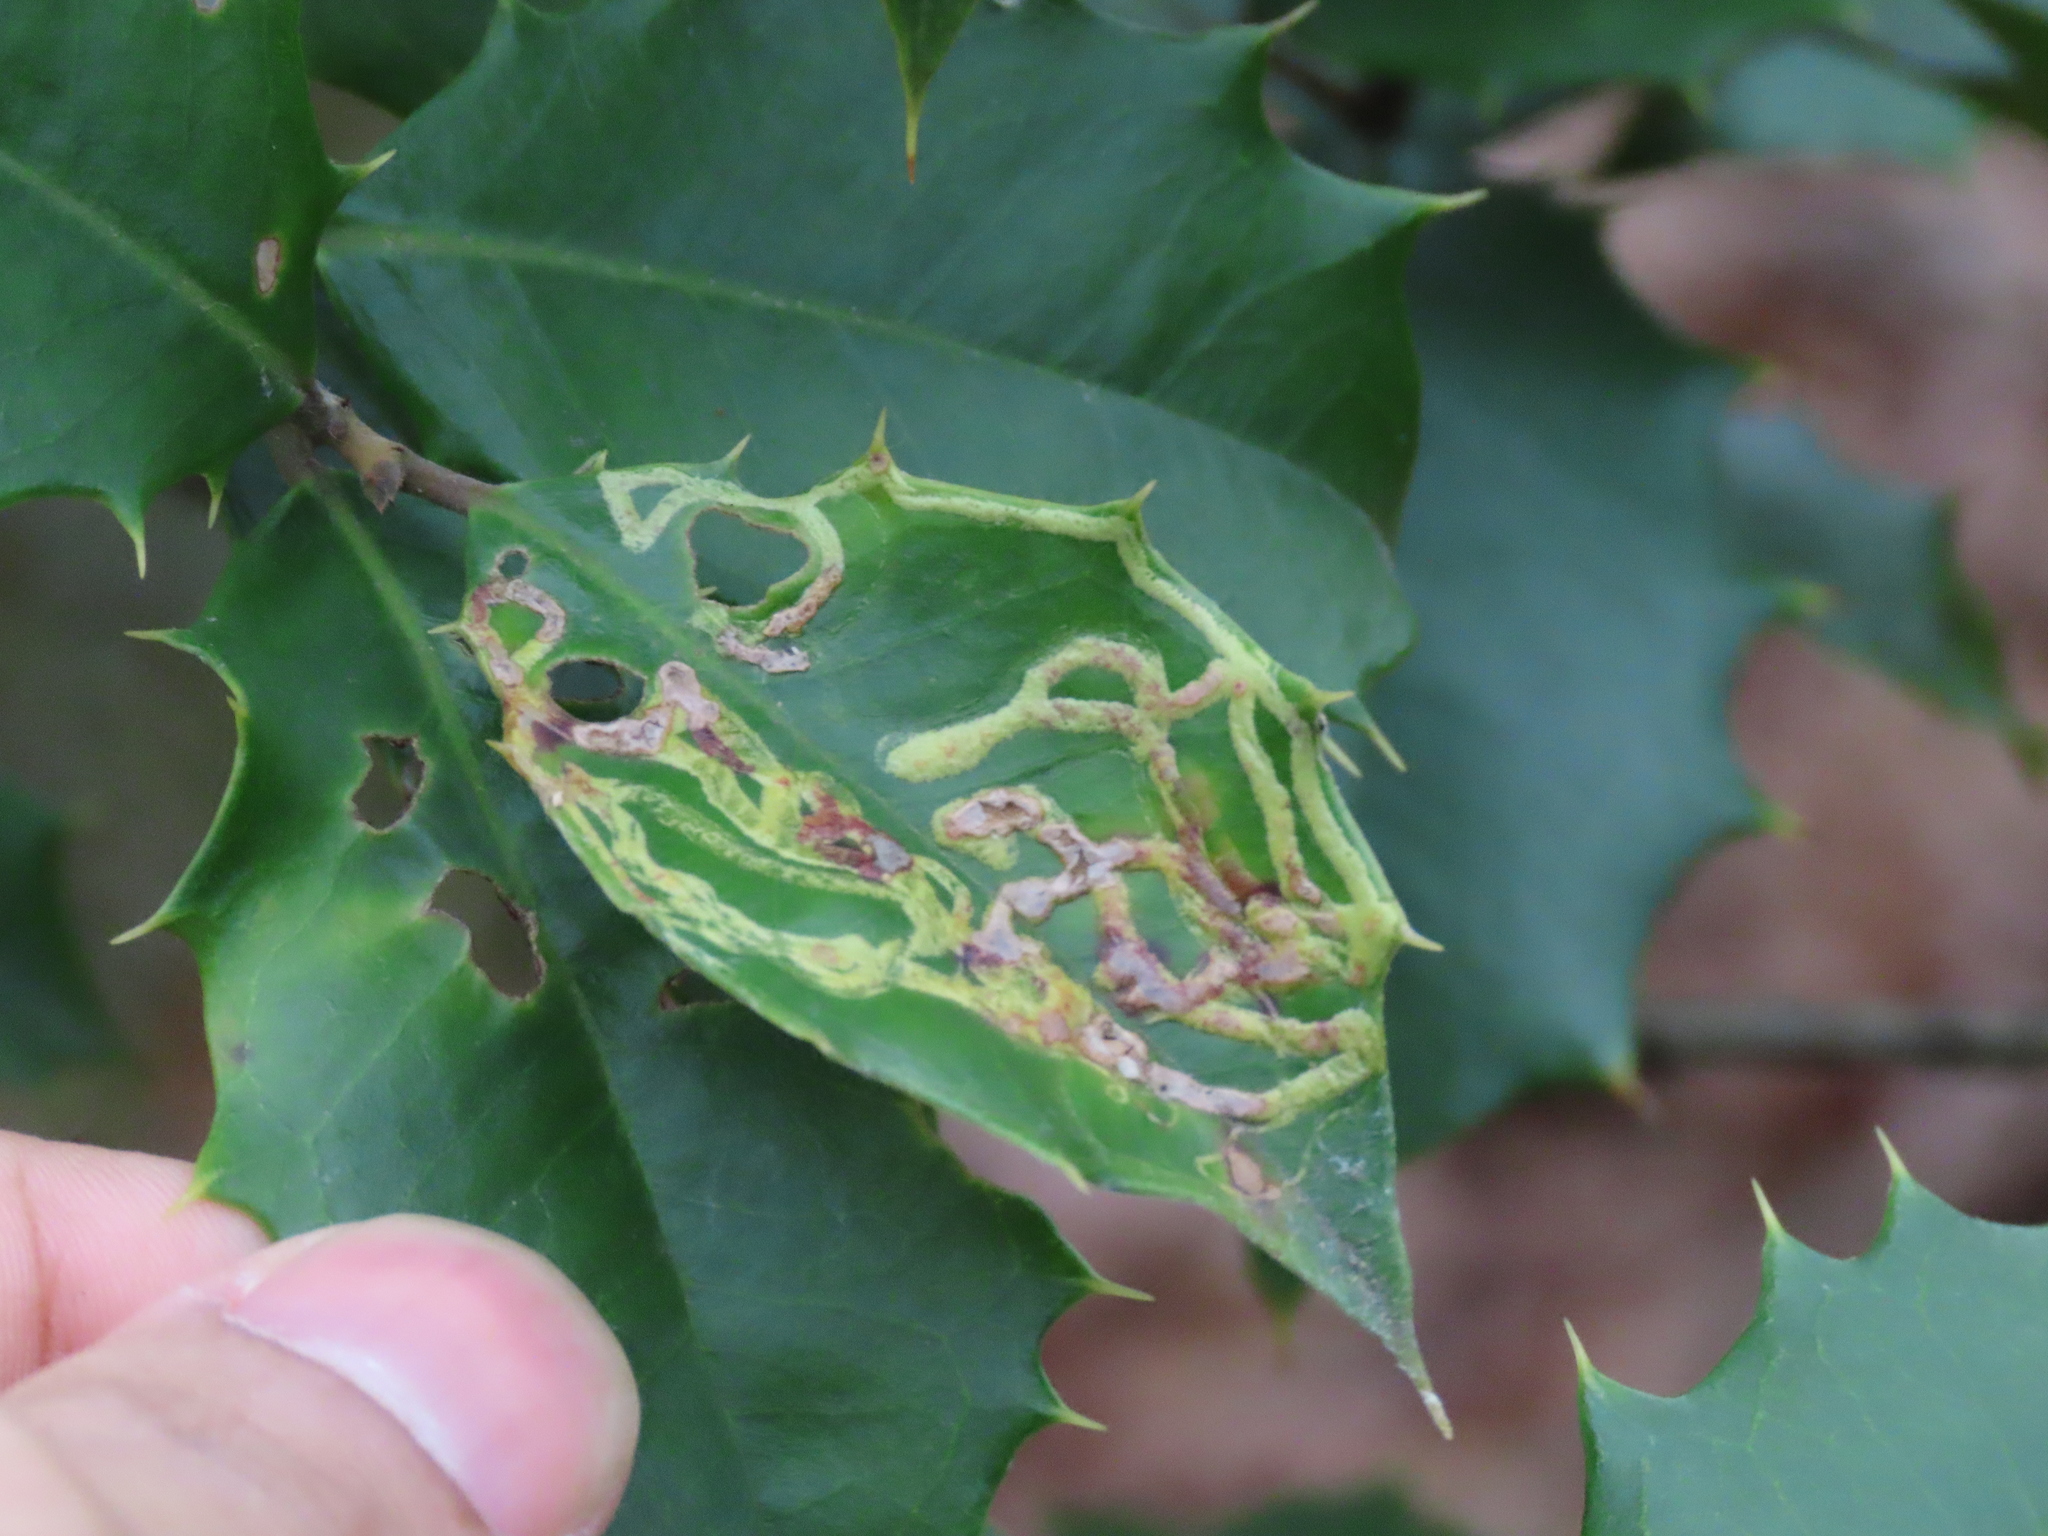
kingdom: Animalia
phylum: Arthropoda
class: Insecta
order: Diptera
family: Agromyzidae
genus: Phytomyza
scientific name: Phytomyza opacae
